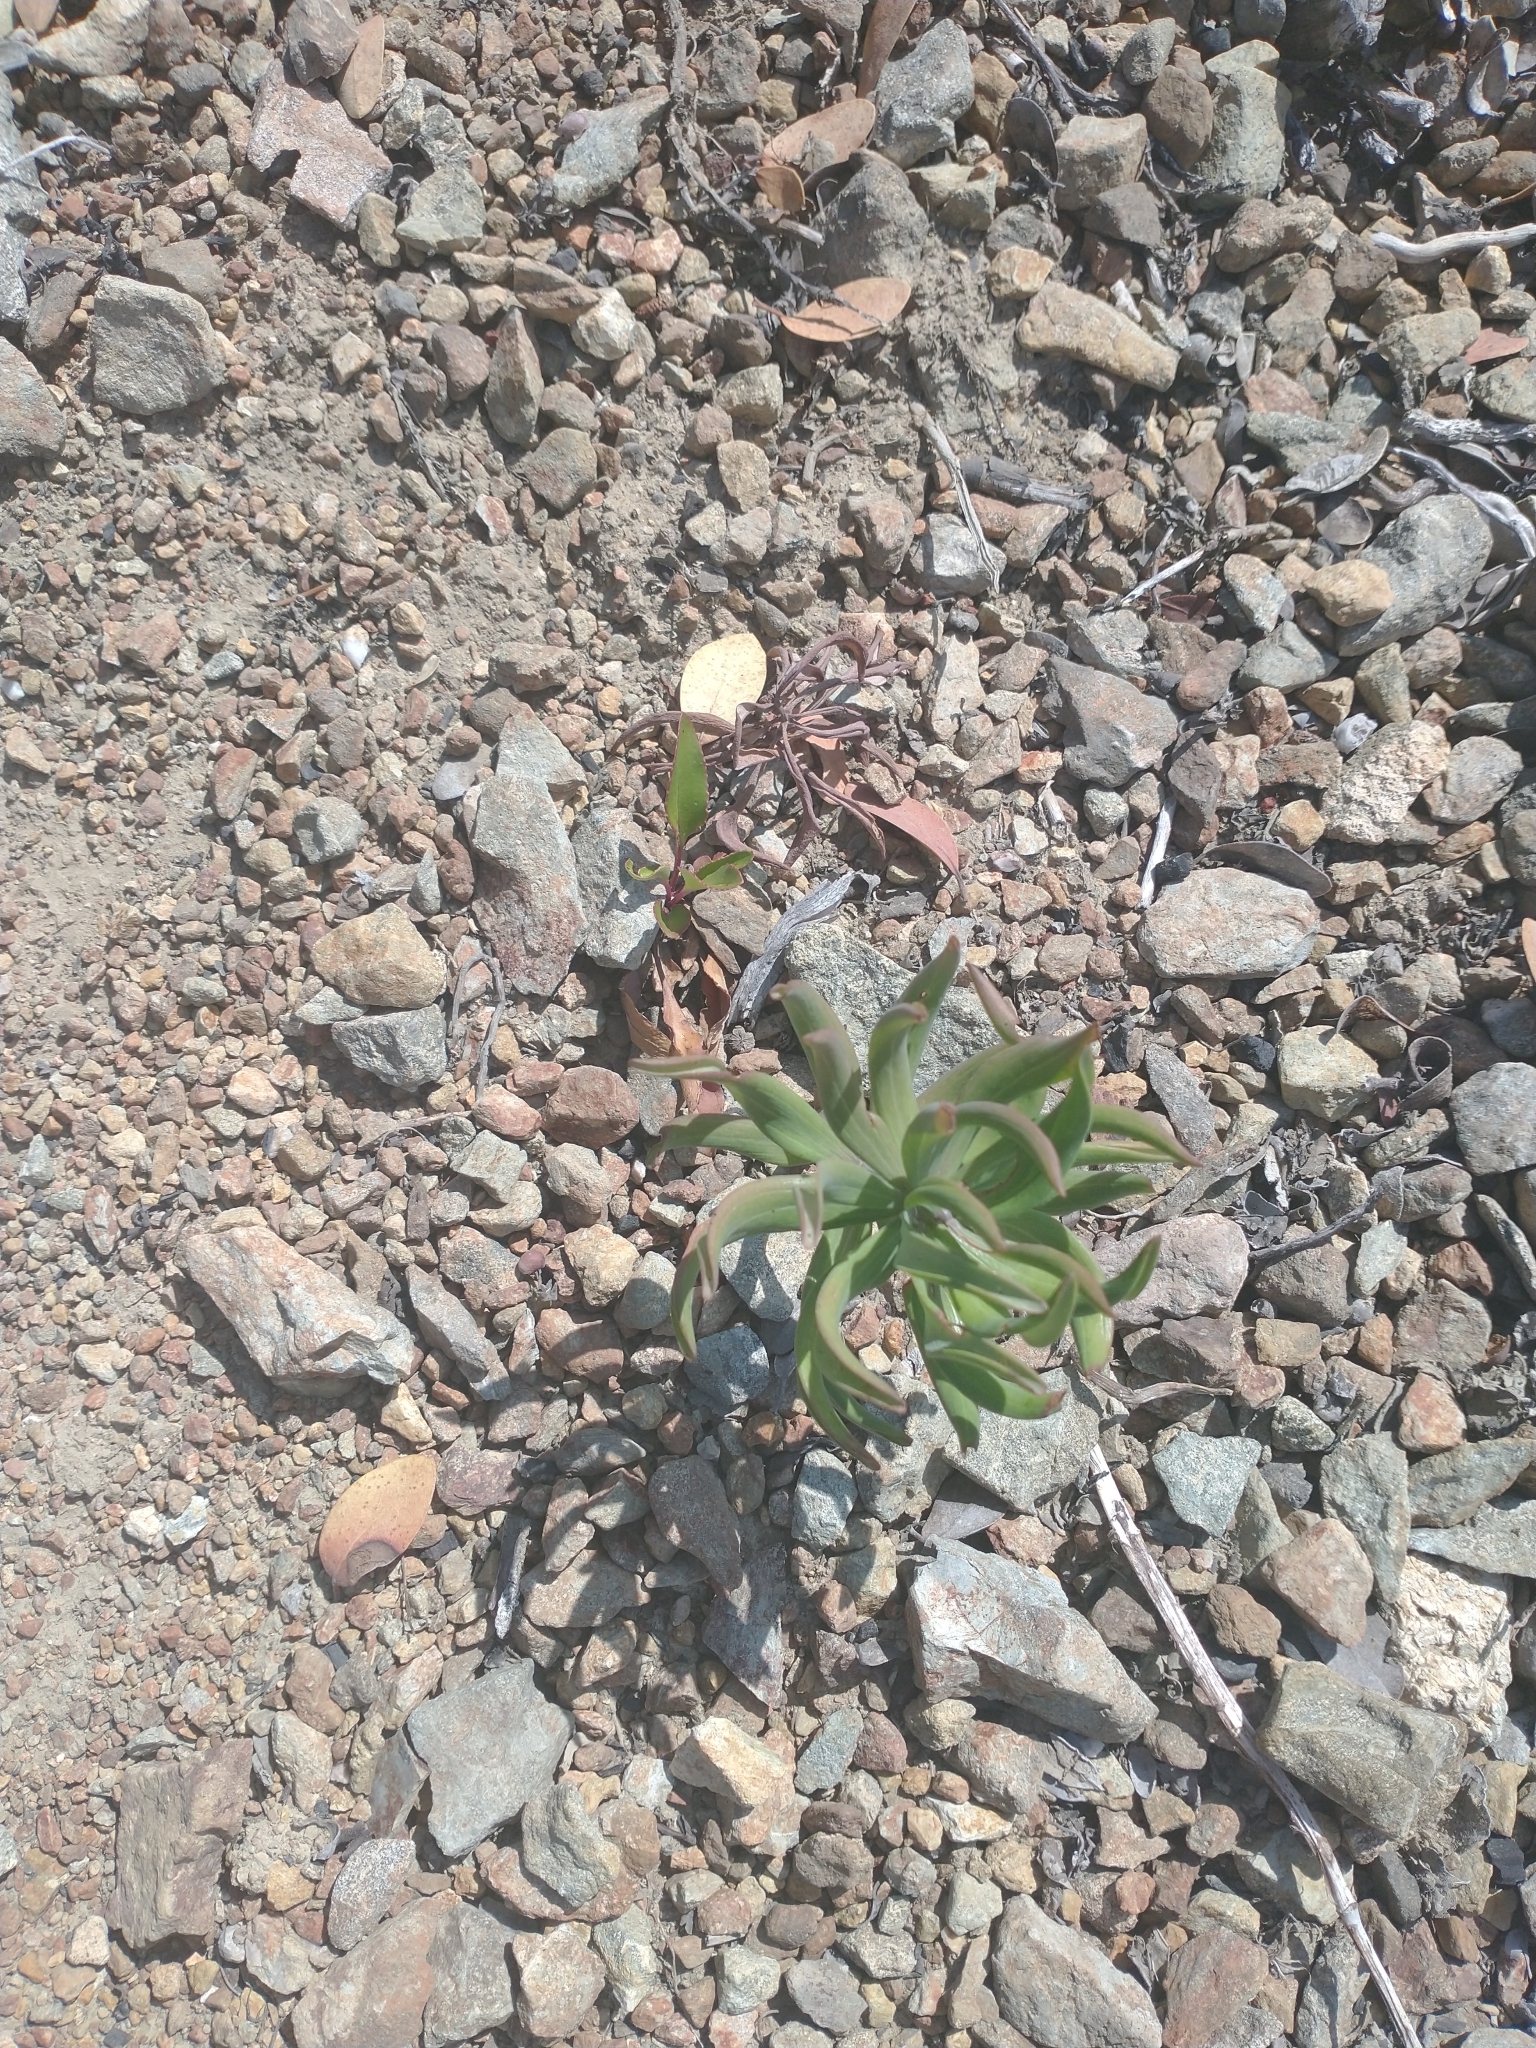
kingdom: Plantae
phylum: Tracheophyta
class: Liliopsida
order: Liliales
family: Liliaceae
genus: Lilium
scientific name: Lilium bolanderi
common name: Bolander's lily
